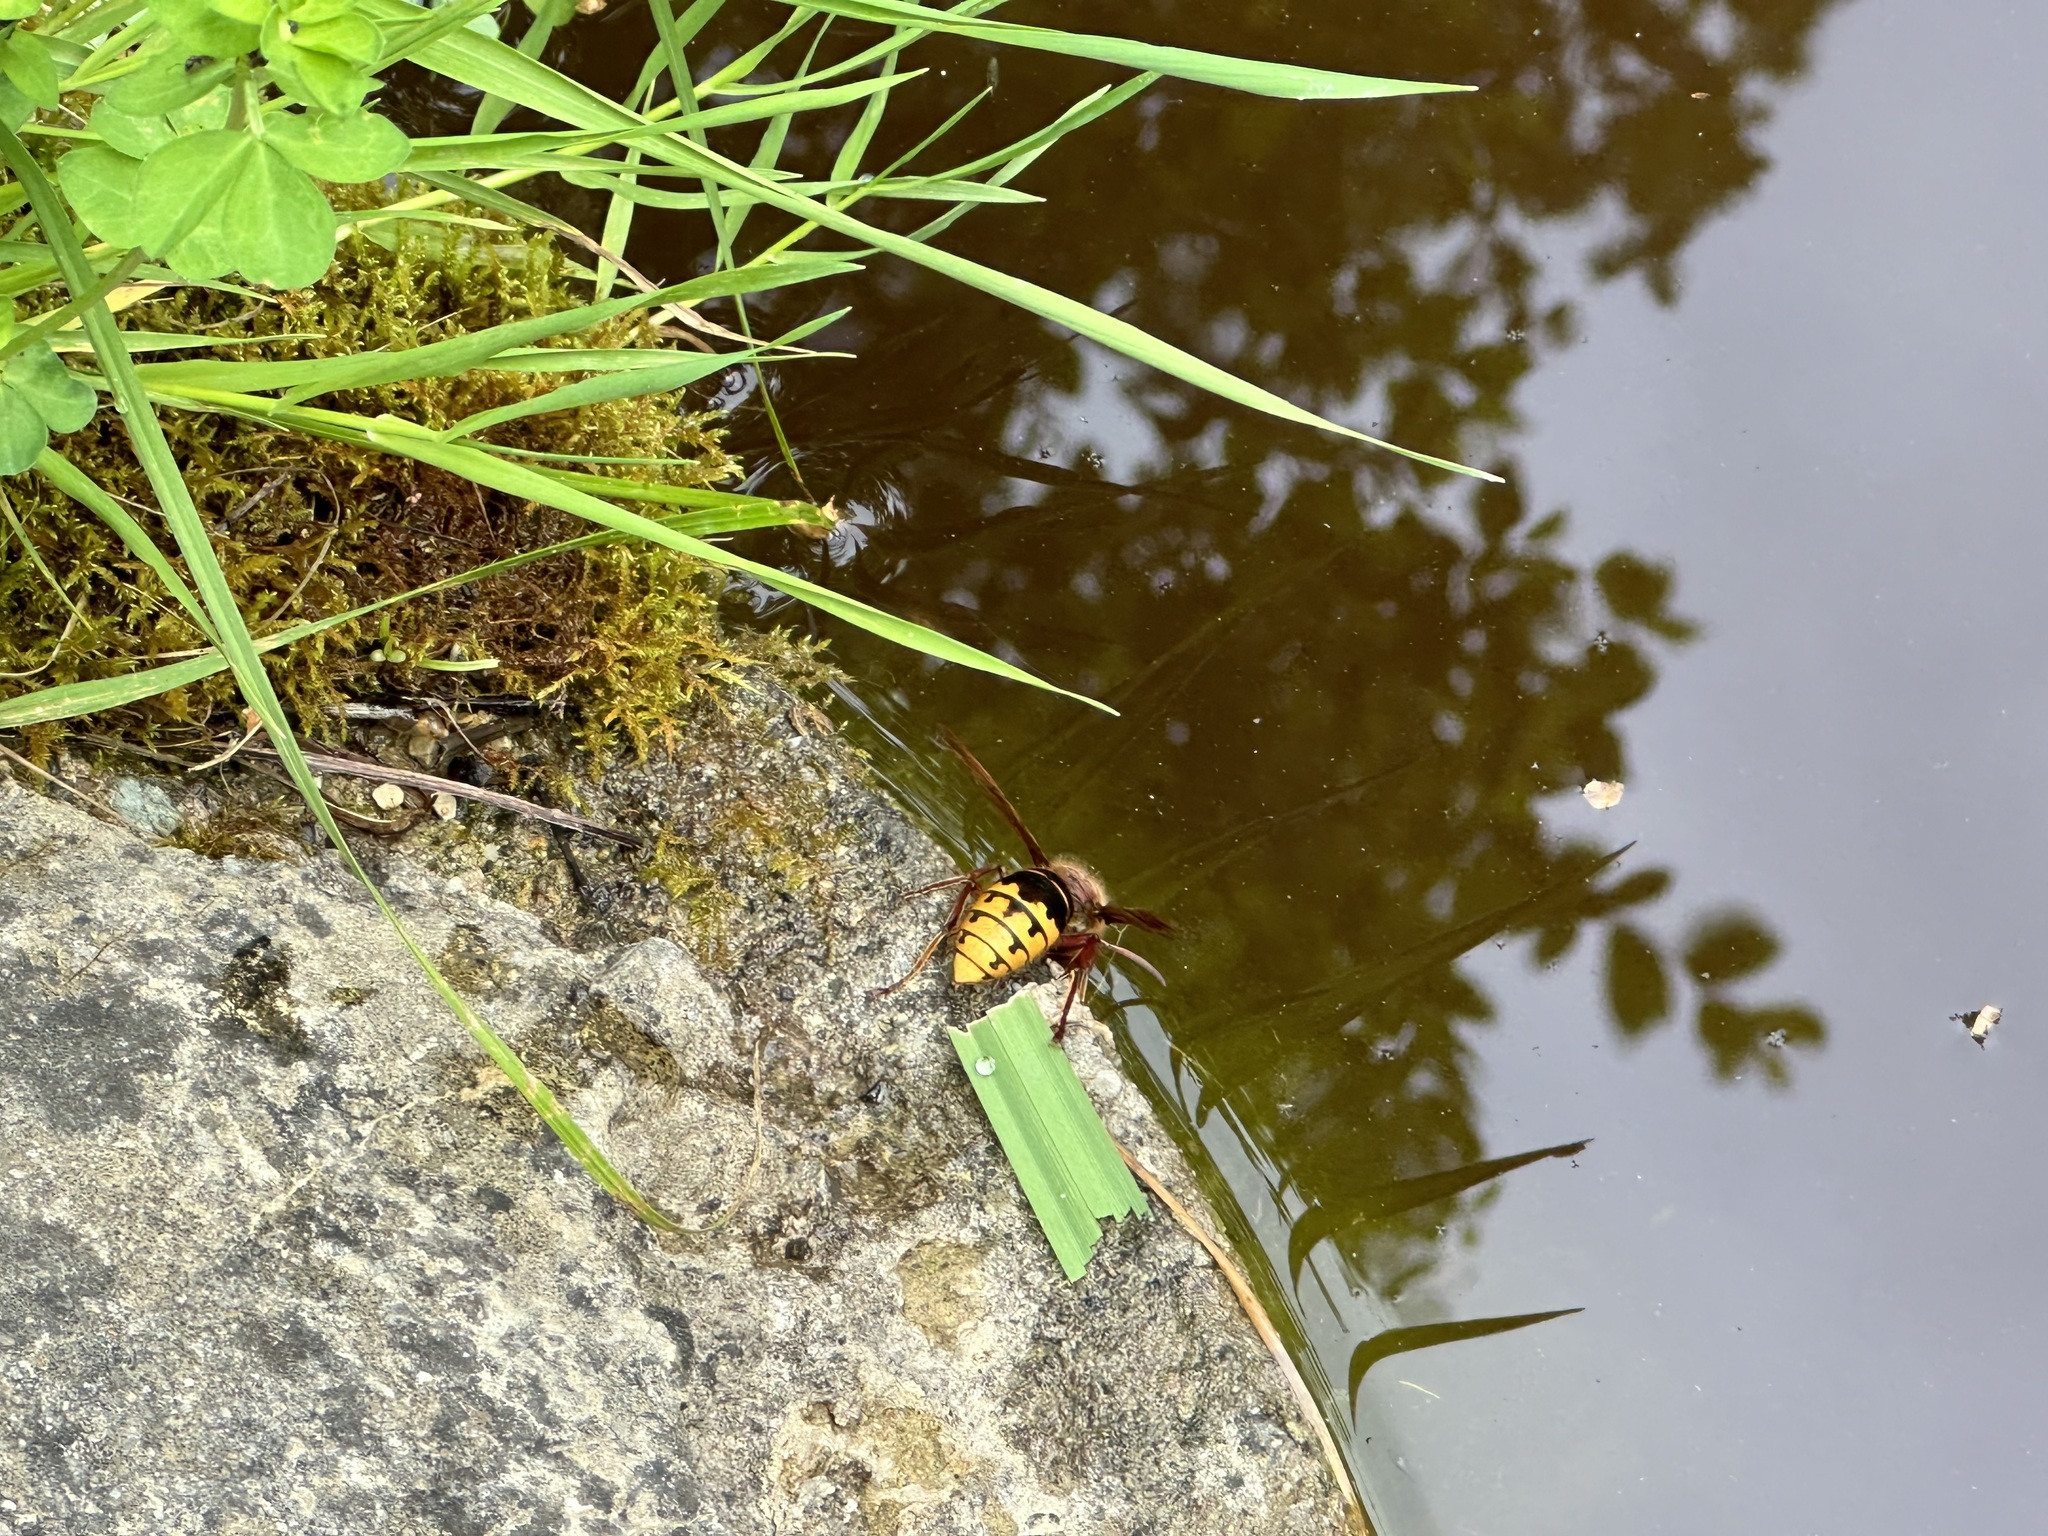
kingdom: Animalia
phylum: Arthropoda
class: Insecta
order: Hymenoptera
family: Vespidae
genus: Vespa
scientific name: Vespa crabro
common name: Hornet
